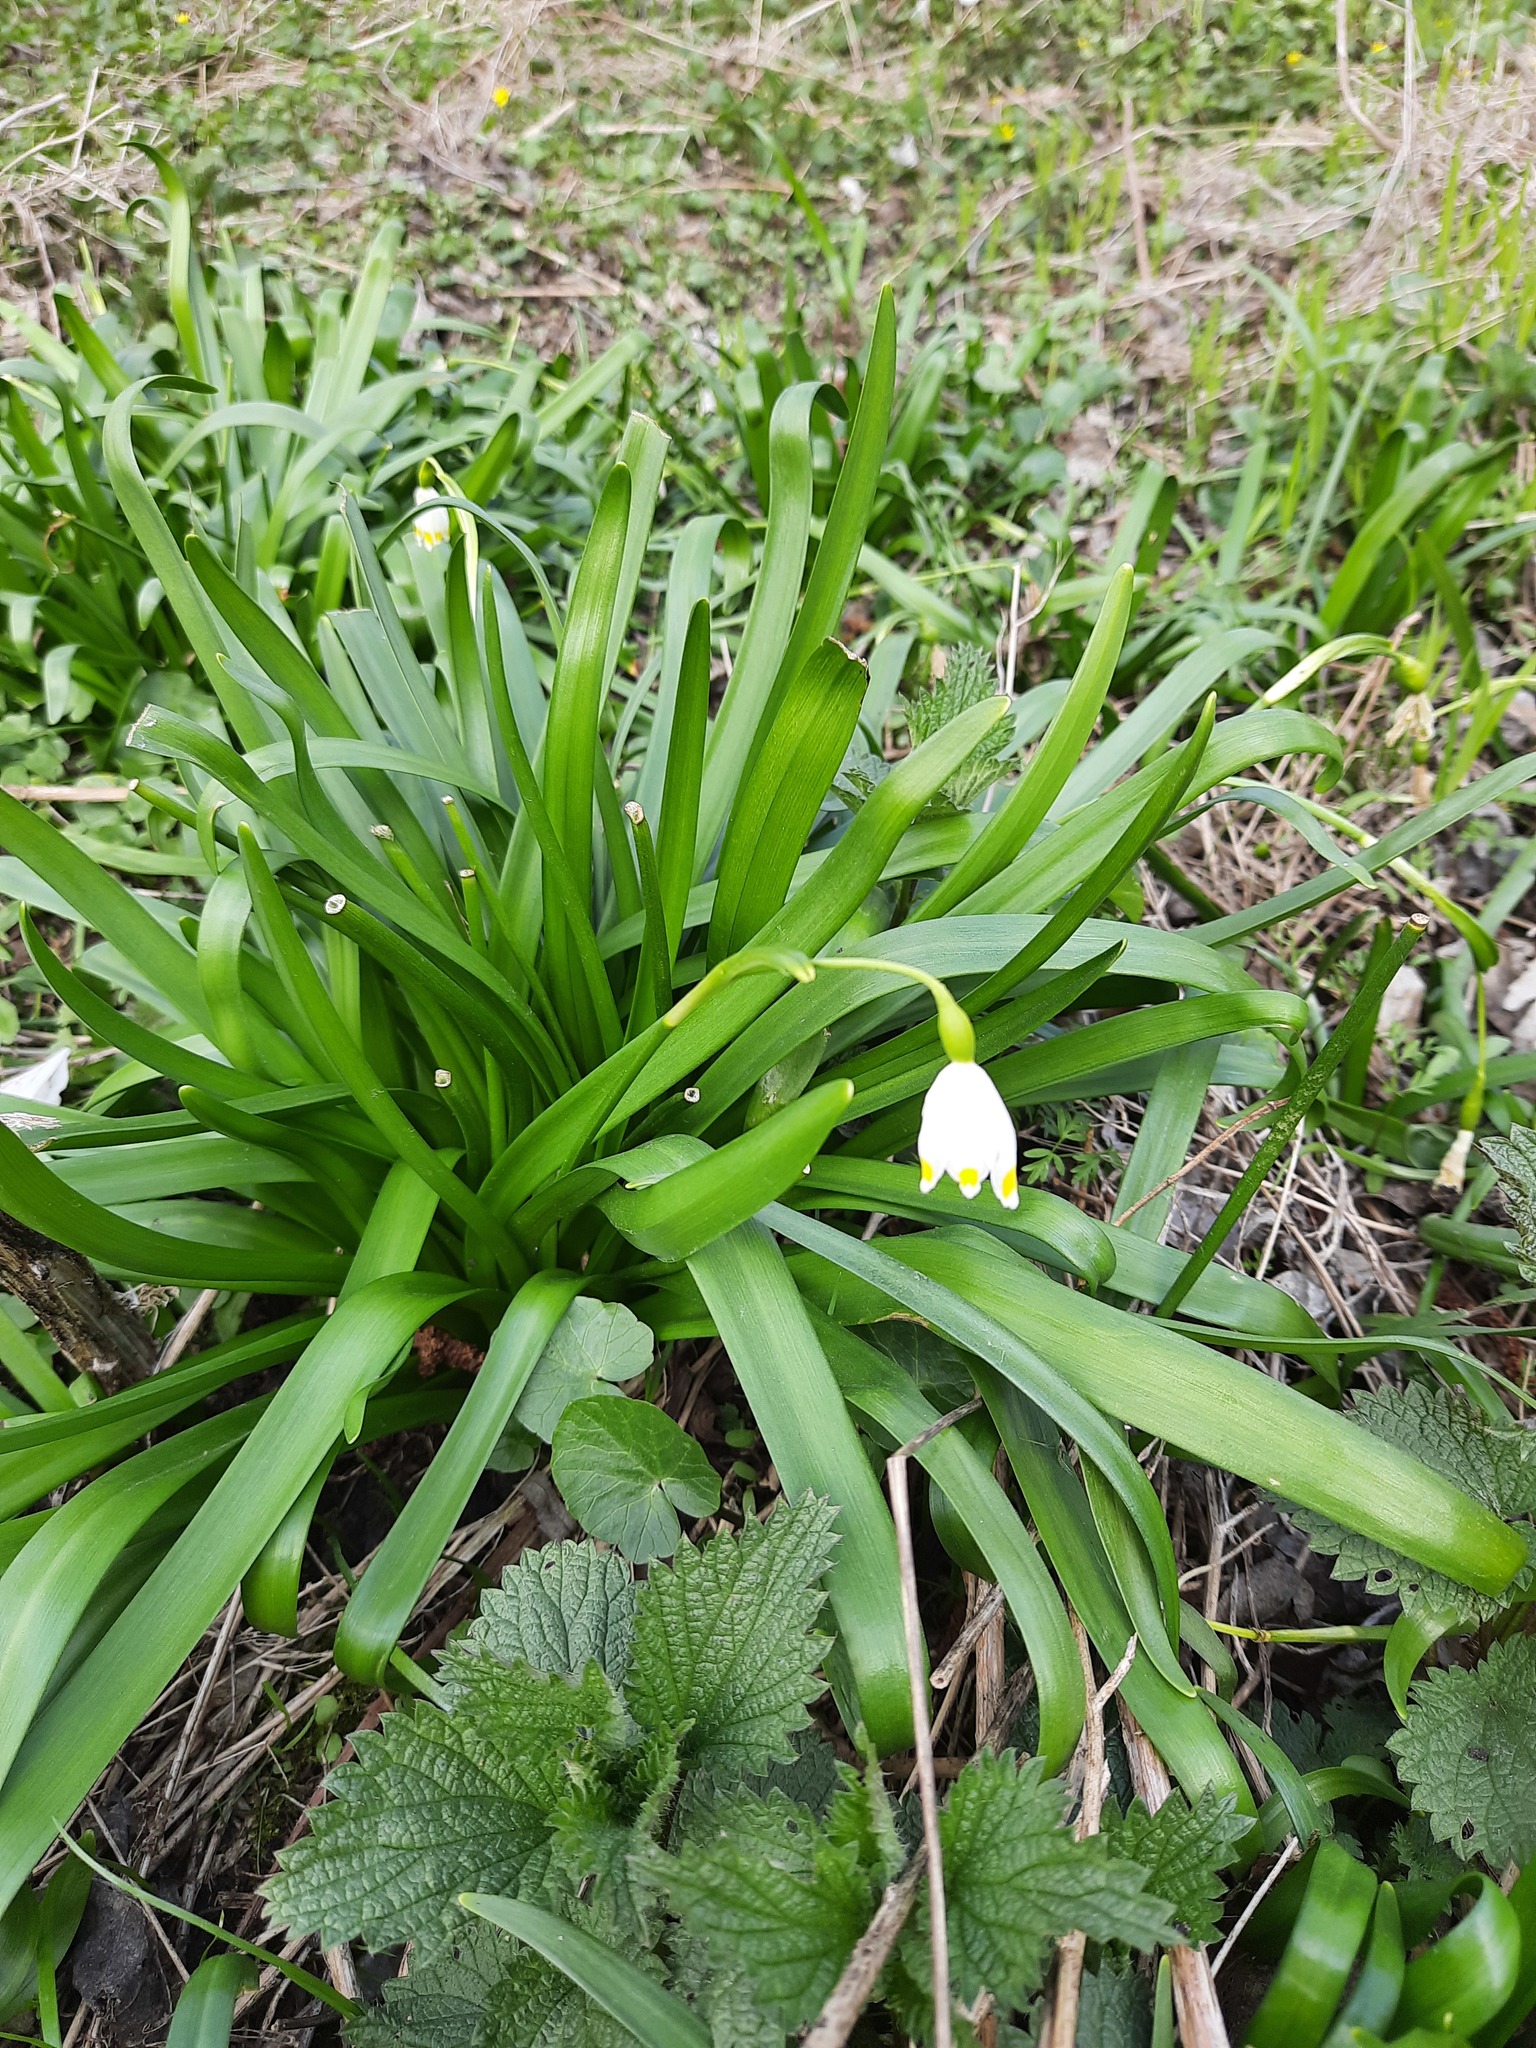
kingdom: Plantae
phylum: Tracheophyta
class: Liliopsida
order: Asparagales
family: Amaryllidaceae
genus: Leucojum
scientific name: Leucojum vernum
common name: Spring snowflake
